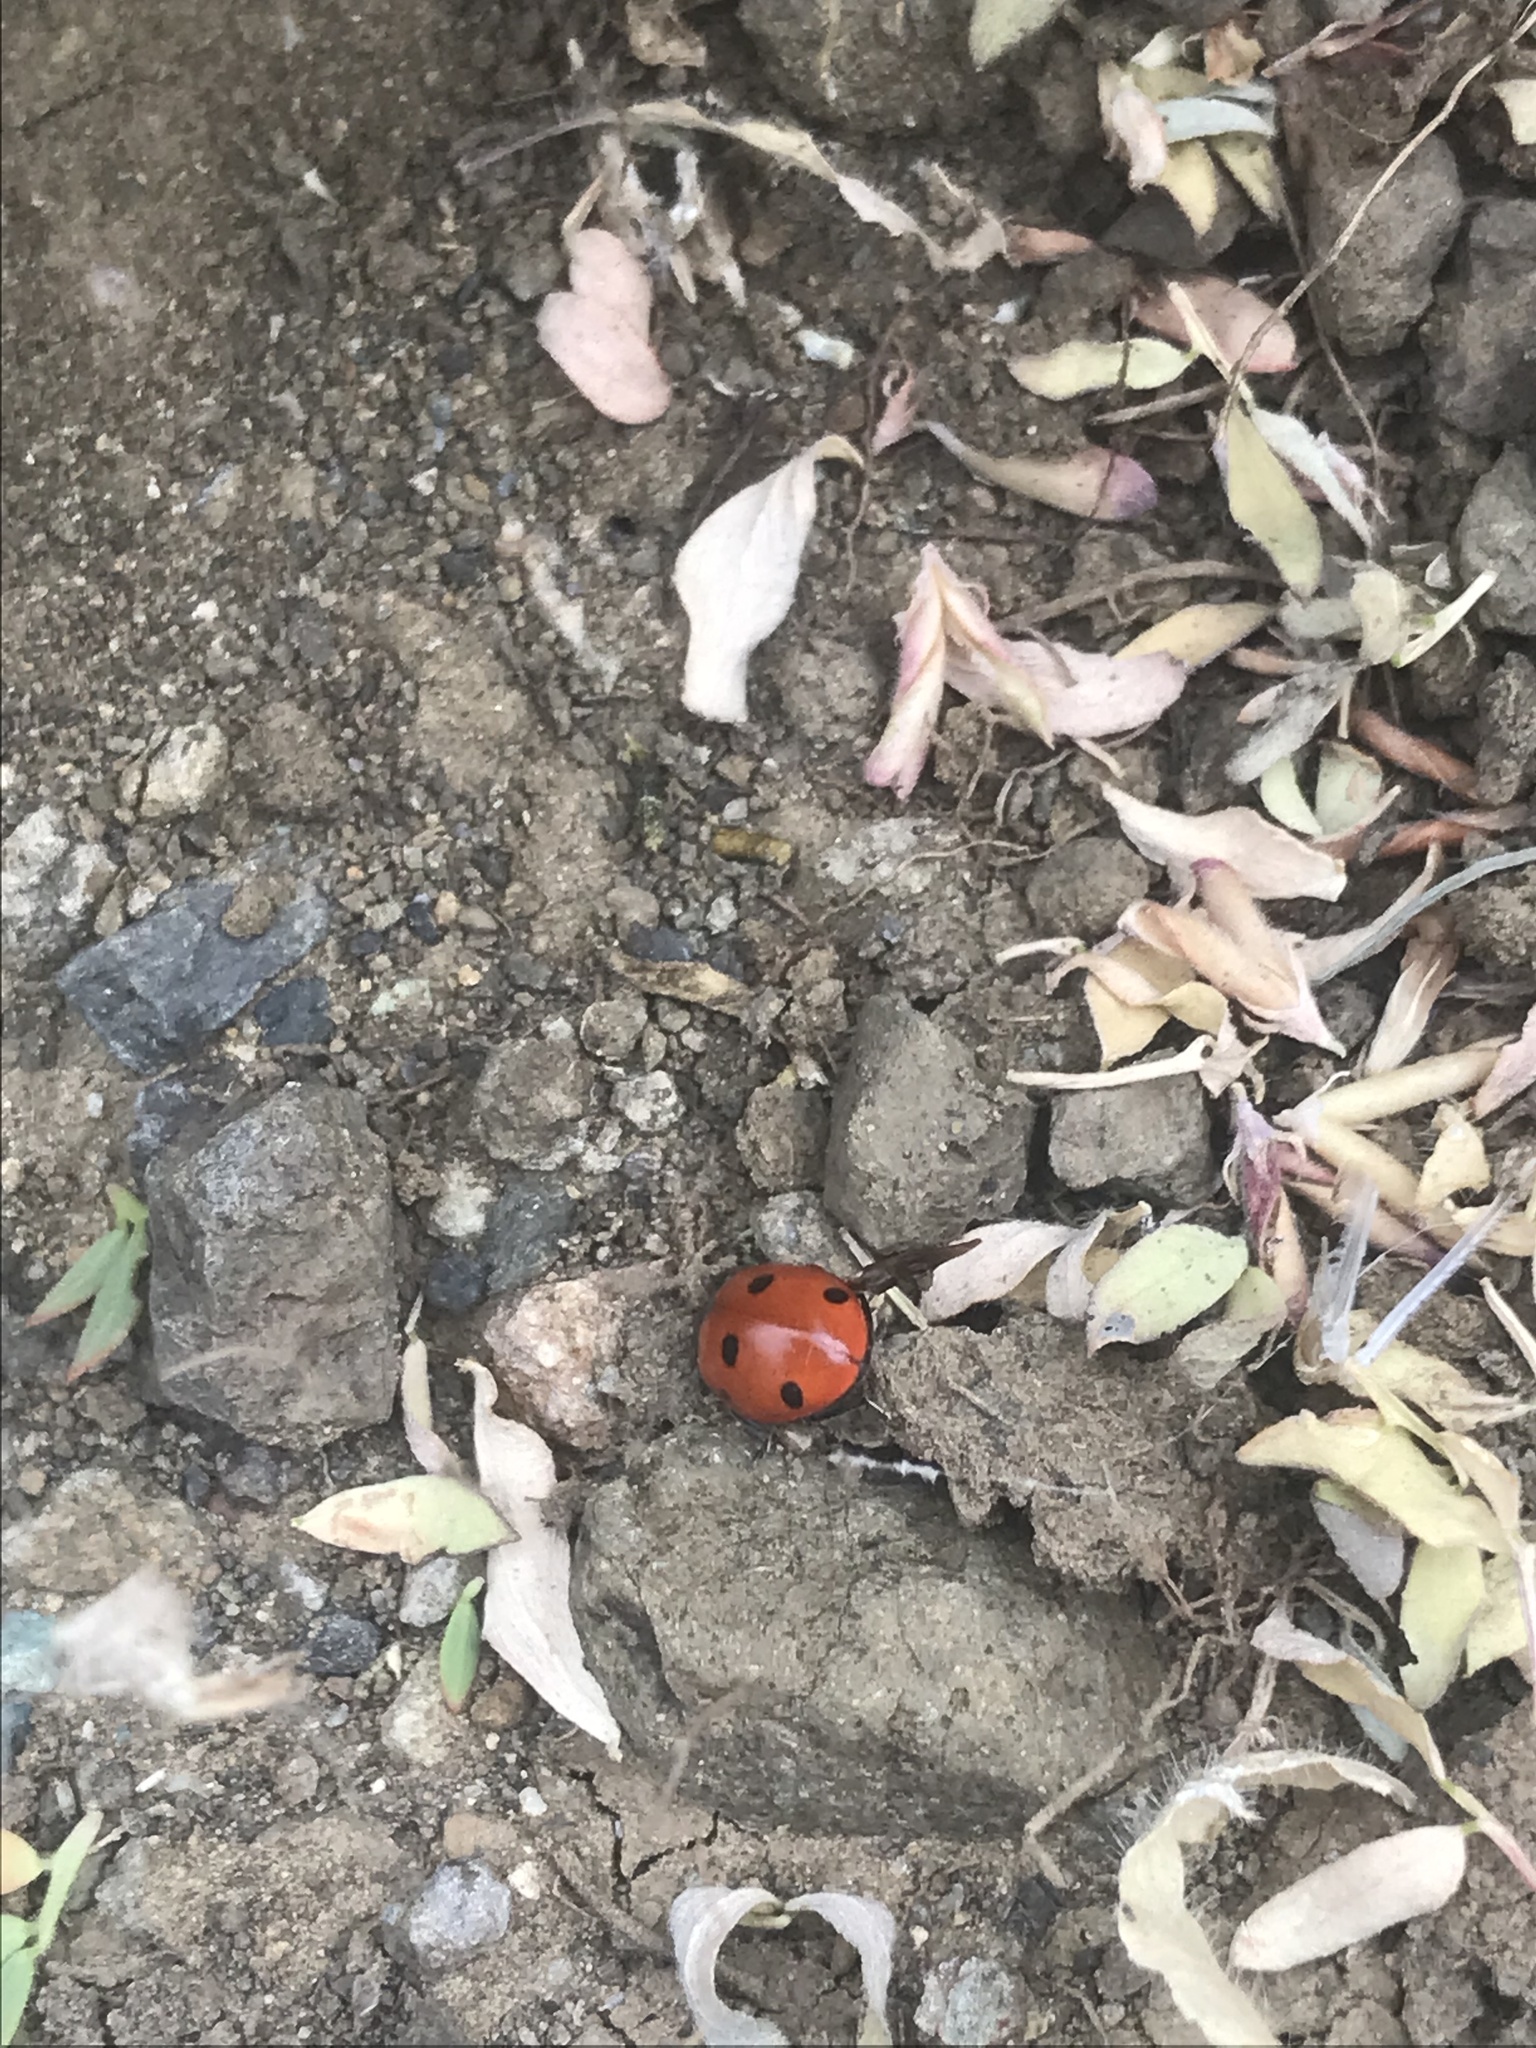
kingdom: Animalia
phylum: Arthropoda
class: Insecta
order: Coleoptera
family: Coccinellidae
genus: Coccinella
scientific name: Coccinella septempunctata
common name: Sevenspotted lady beetle
